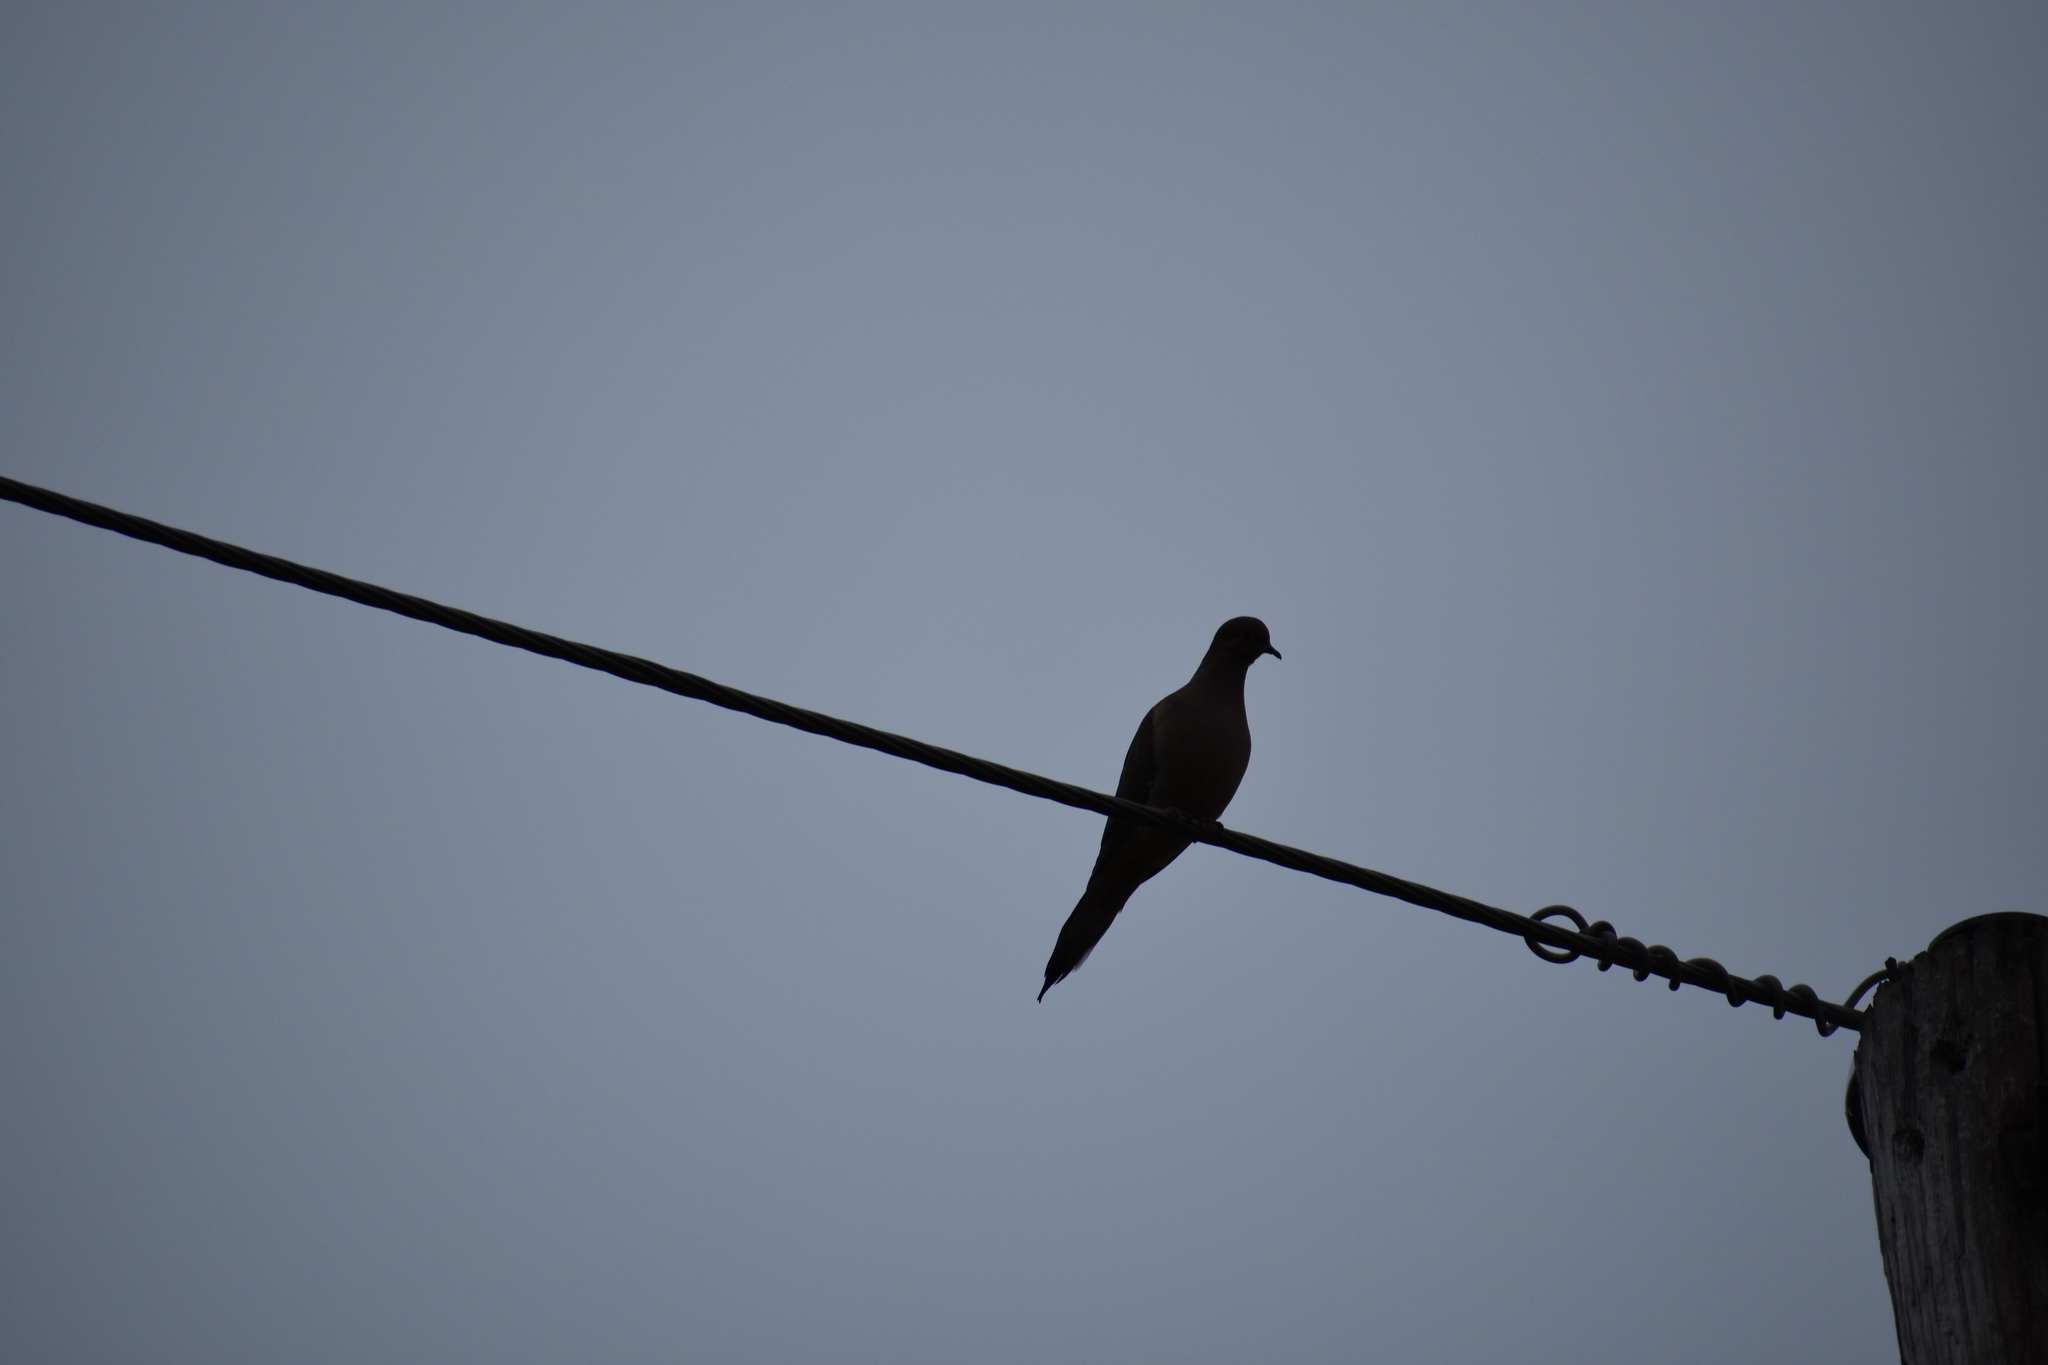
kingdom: Animalia
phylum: Chordata
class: Aves
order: Columbiformes
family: Columbidae
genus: Zenaida
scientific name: Zenaida macroura
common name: Mourning dove
